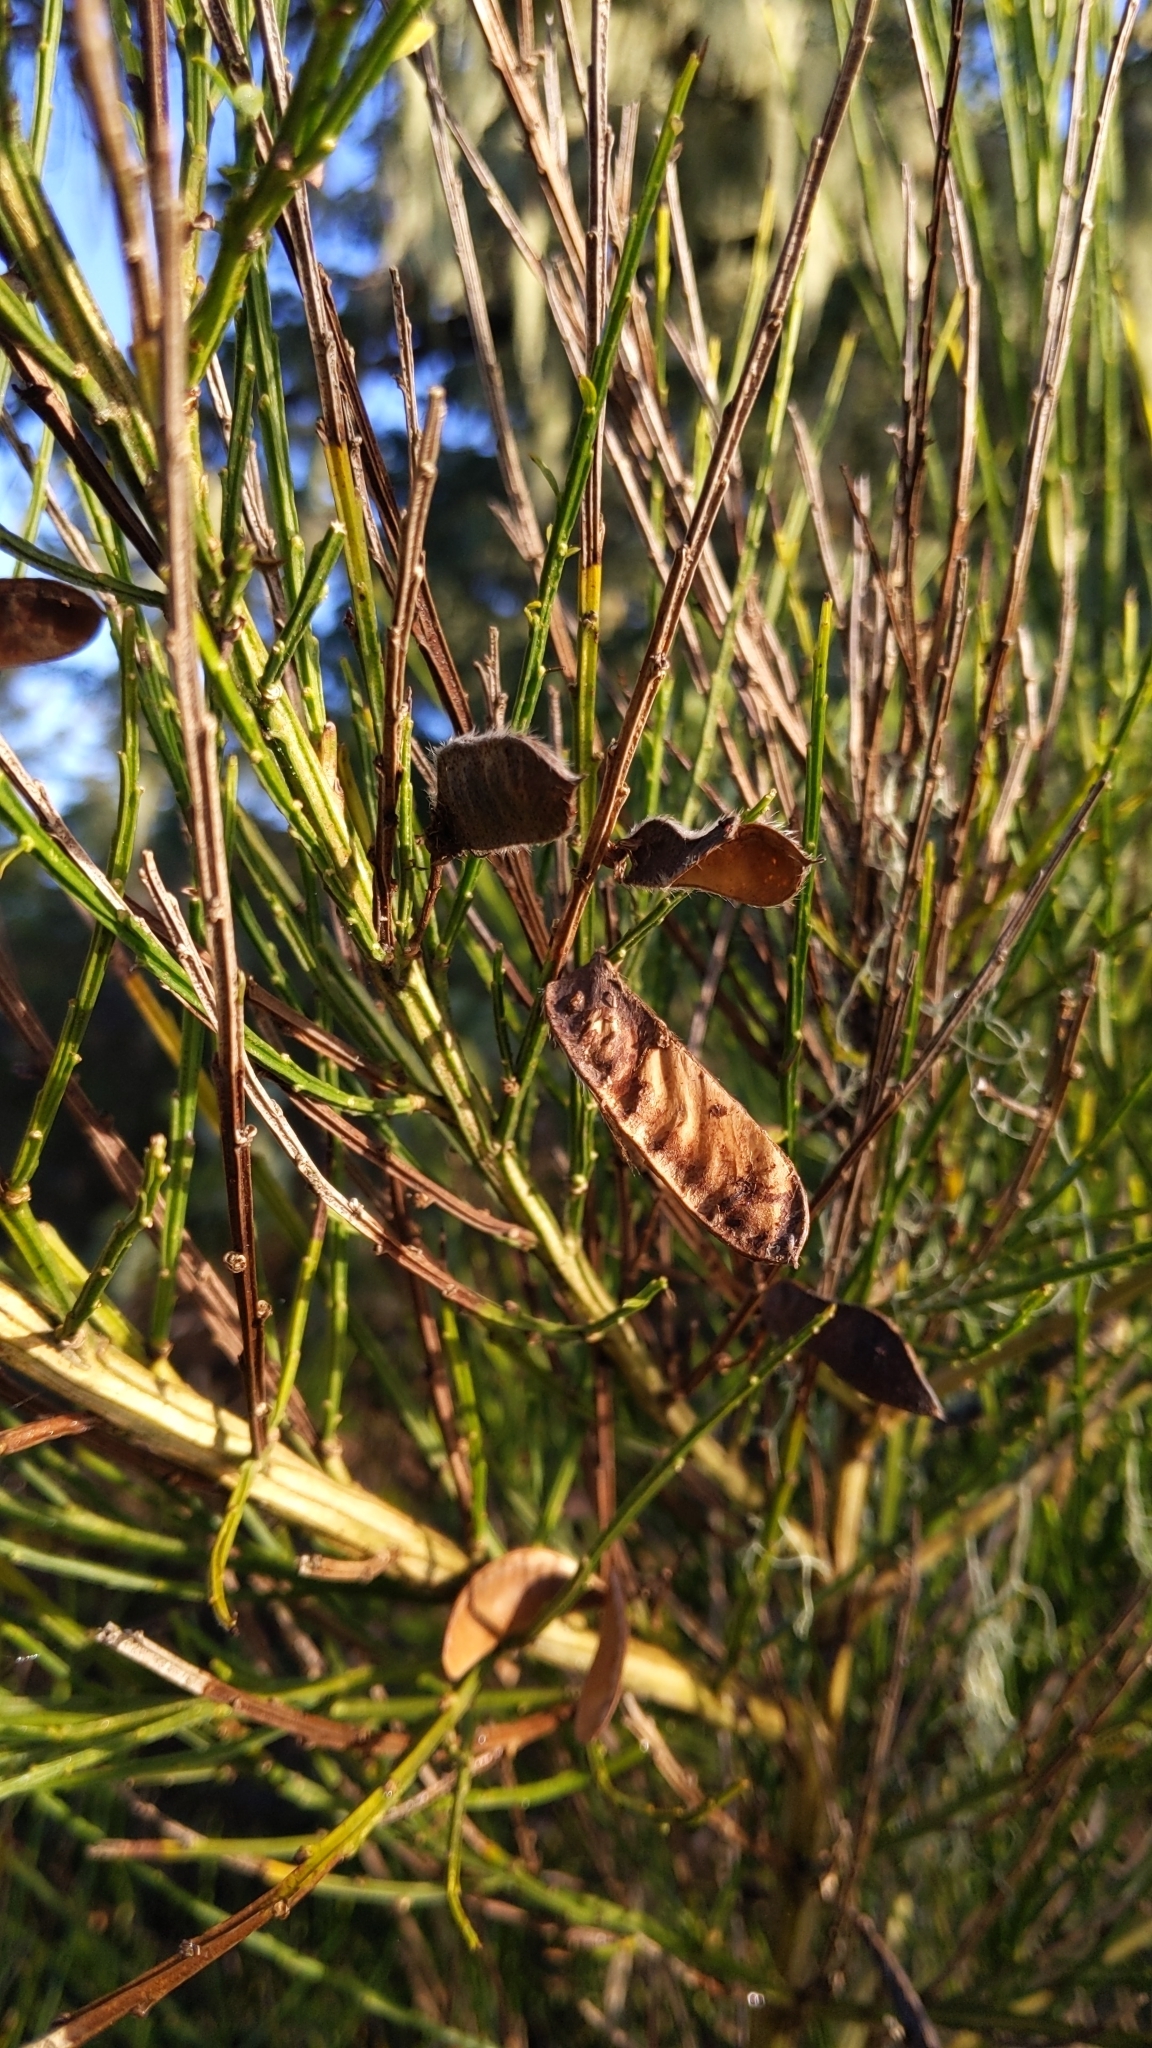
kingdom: Plantae
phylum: Tracheophyta
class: Magnoliopsida
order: Fabales
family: Fabaceae
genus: Cytisus
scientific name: Cytisus scoparius
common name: Scotch broom
